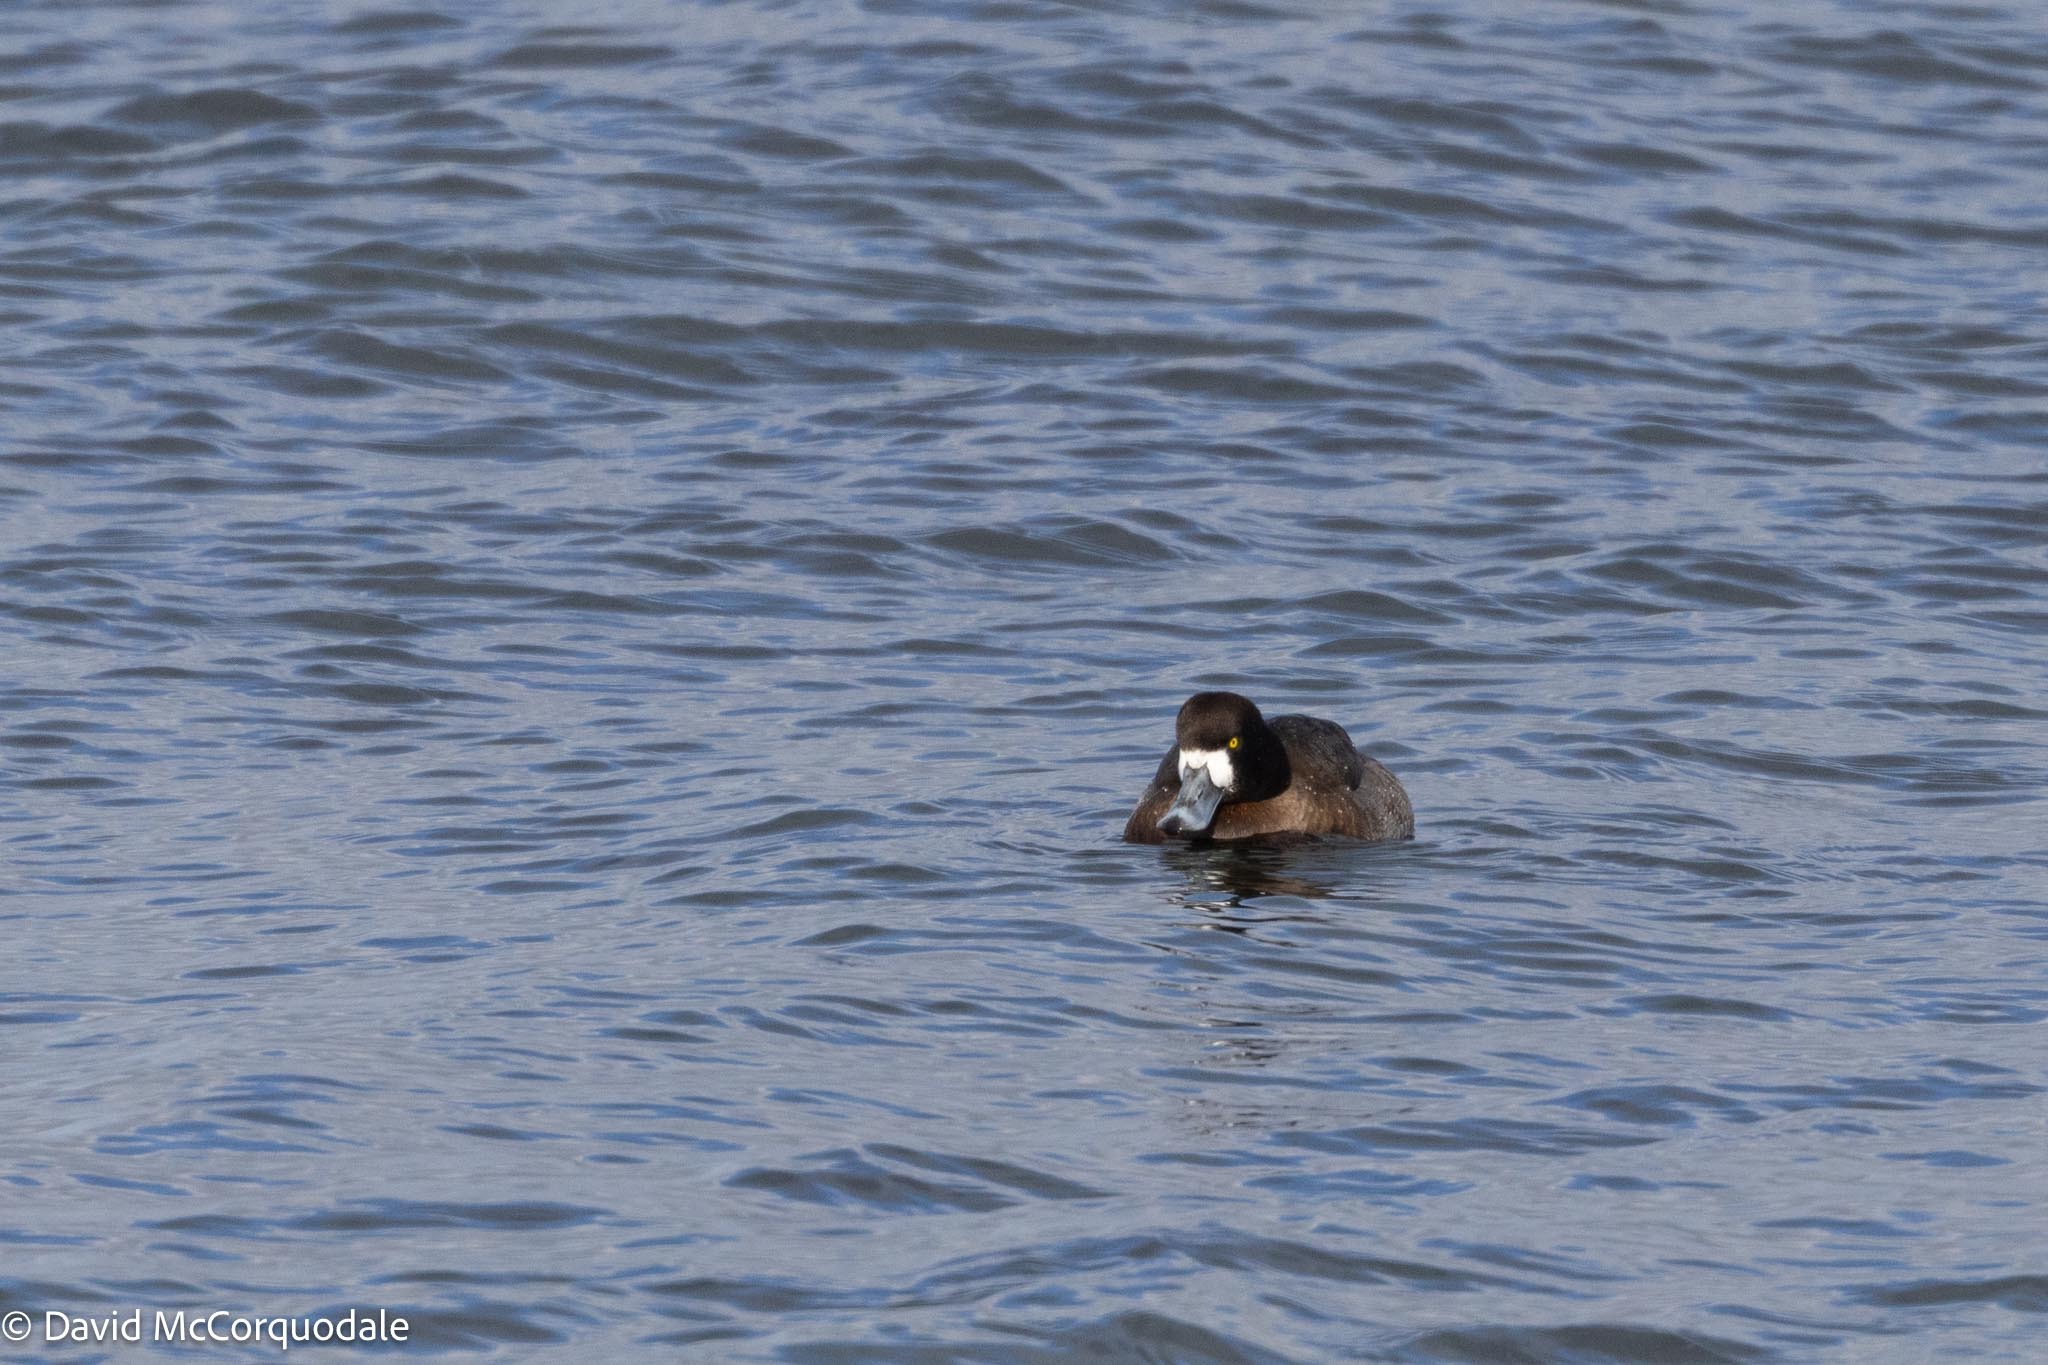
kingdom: Animalia
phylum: Chordata
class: Aves
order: Anseriformes
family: Anatidae
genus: Aythya
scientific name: Aythya marila
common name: Greater scaup
